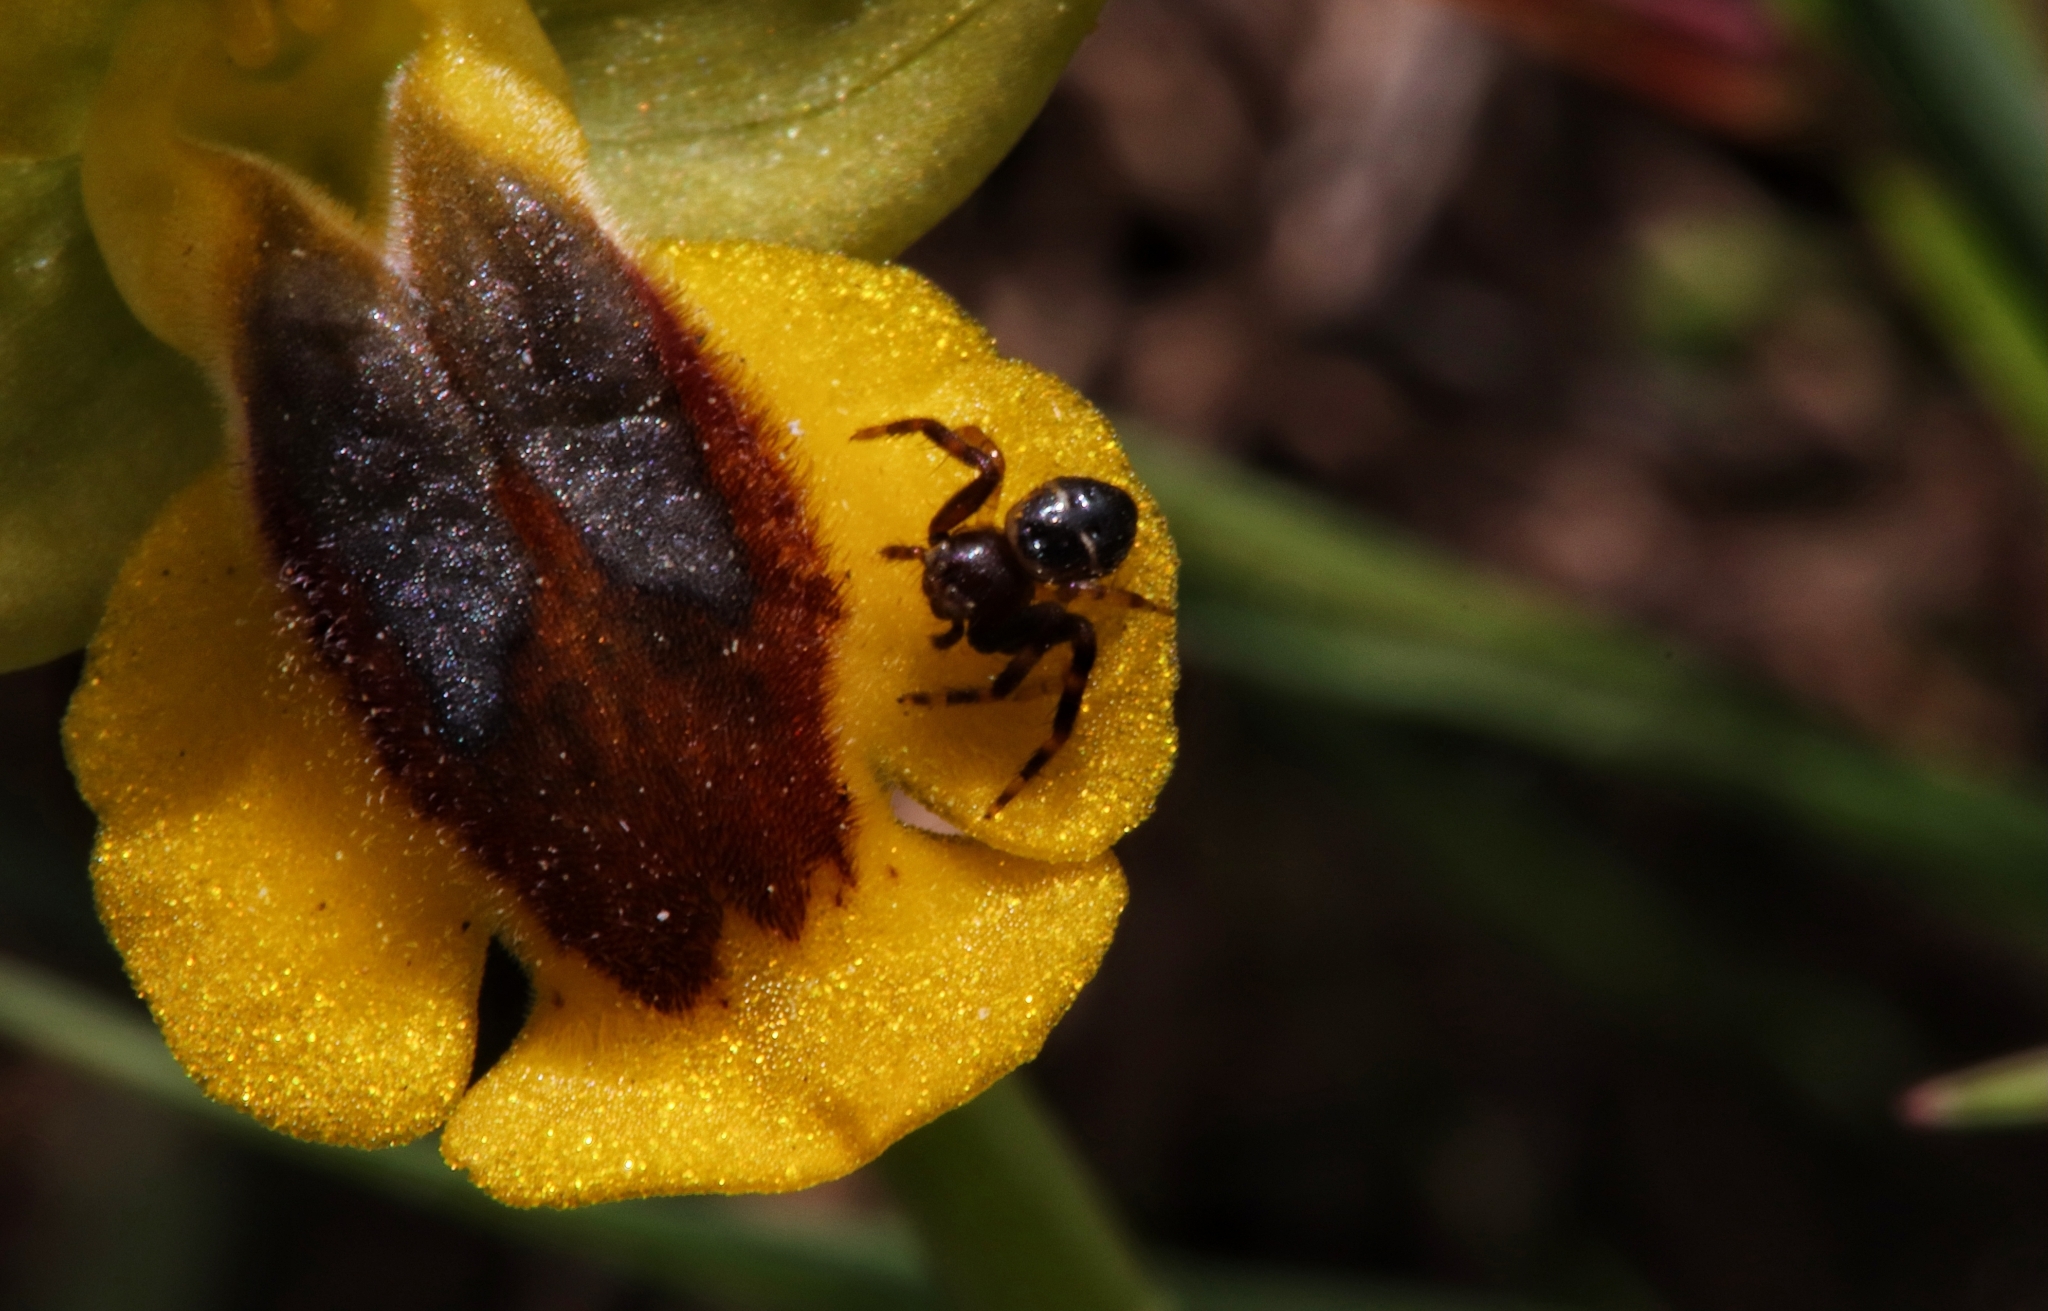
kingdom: Animalia
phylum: Arthropoda
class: Arachnida
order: Araneae
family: Thomisidae
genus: Synema
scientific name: Synema globosum
